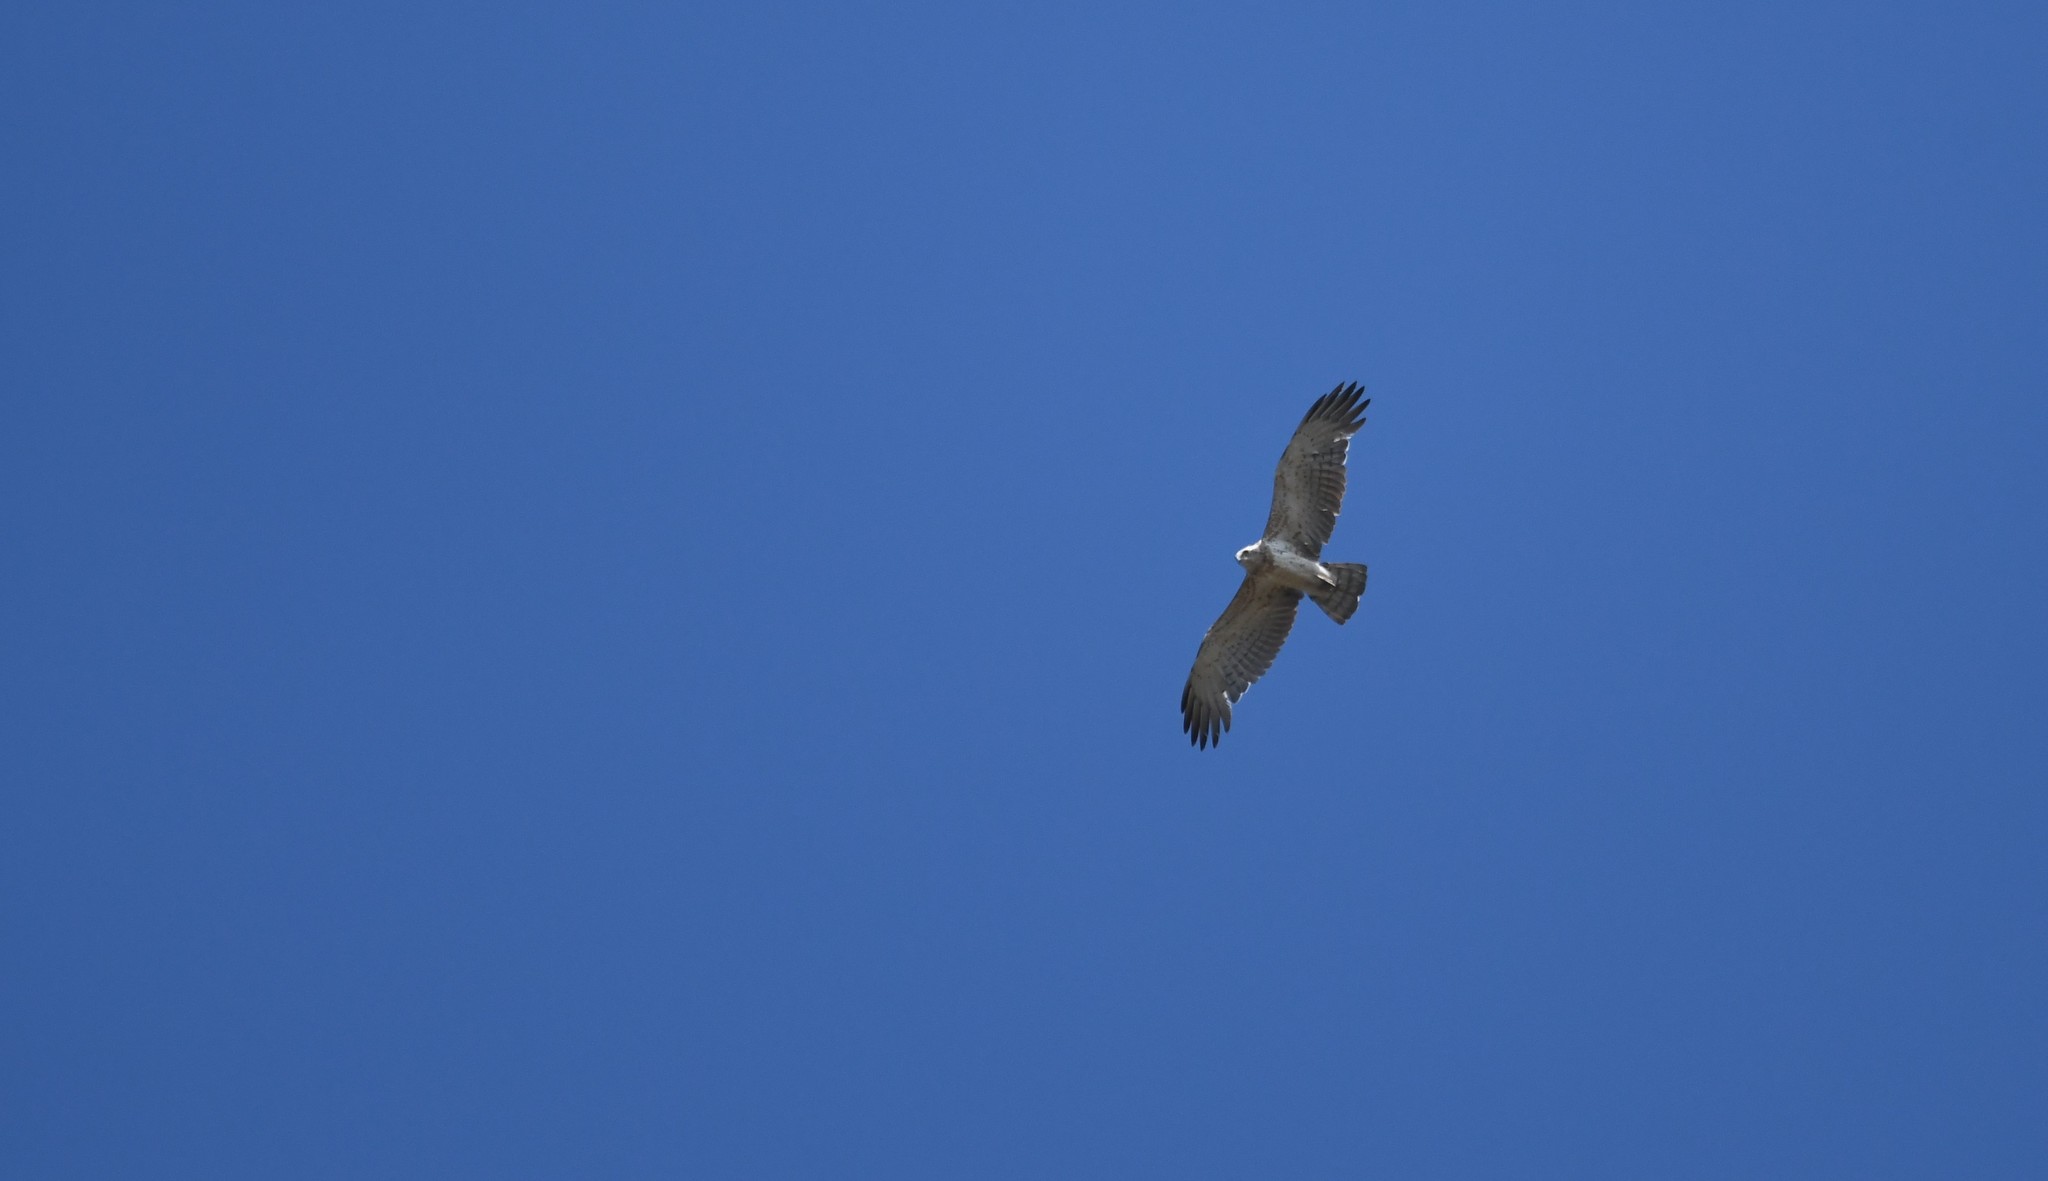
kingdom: Animalia
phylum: Chordata
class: Aves
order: Accipitriformes
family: Accipitridae
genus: Circaetus
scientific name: Circaetus gallicus
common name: Short-toed snake eagle
